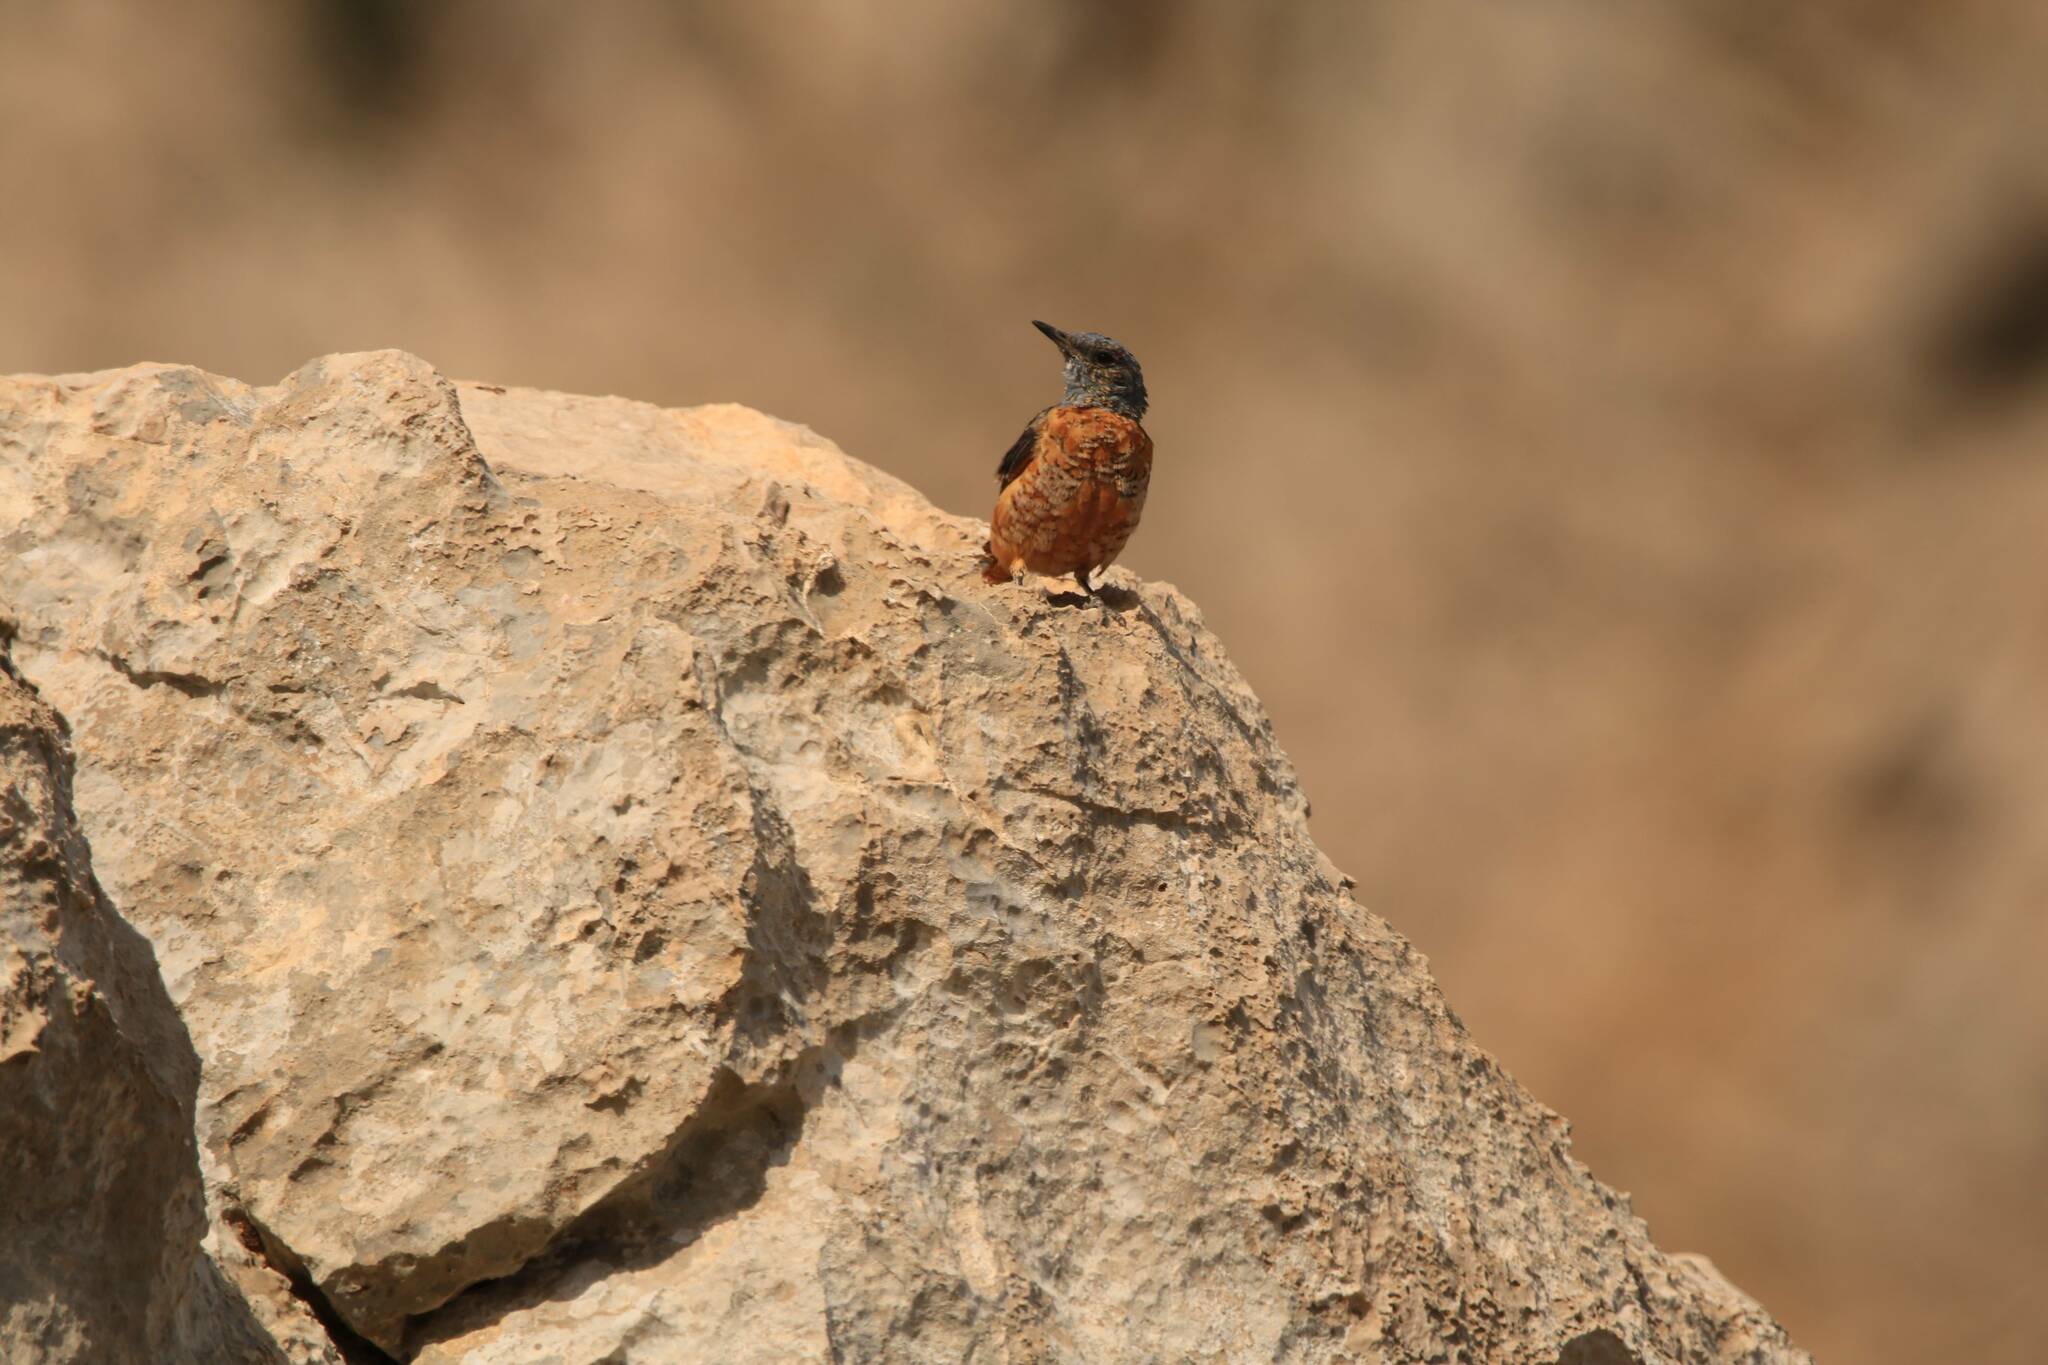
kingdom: Animalia
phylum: Chordata
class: Aves
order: Passeriformes
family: Muscicapidae
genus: Monticola
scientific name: Monticola saxatilis
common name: Rufous-tailed rock thrush
